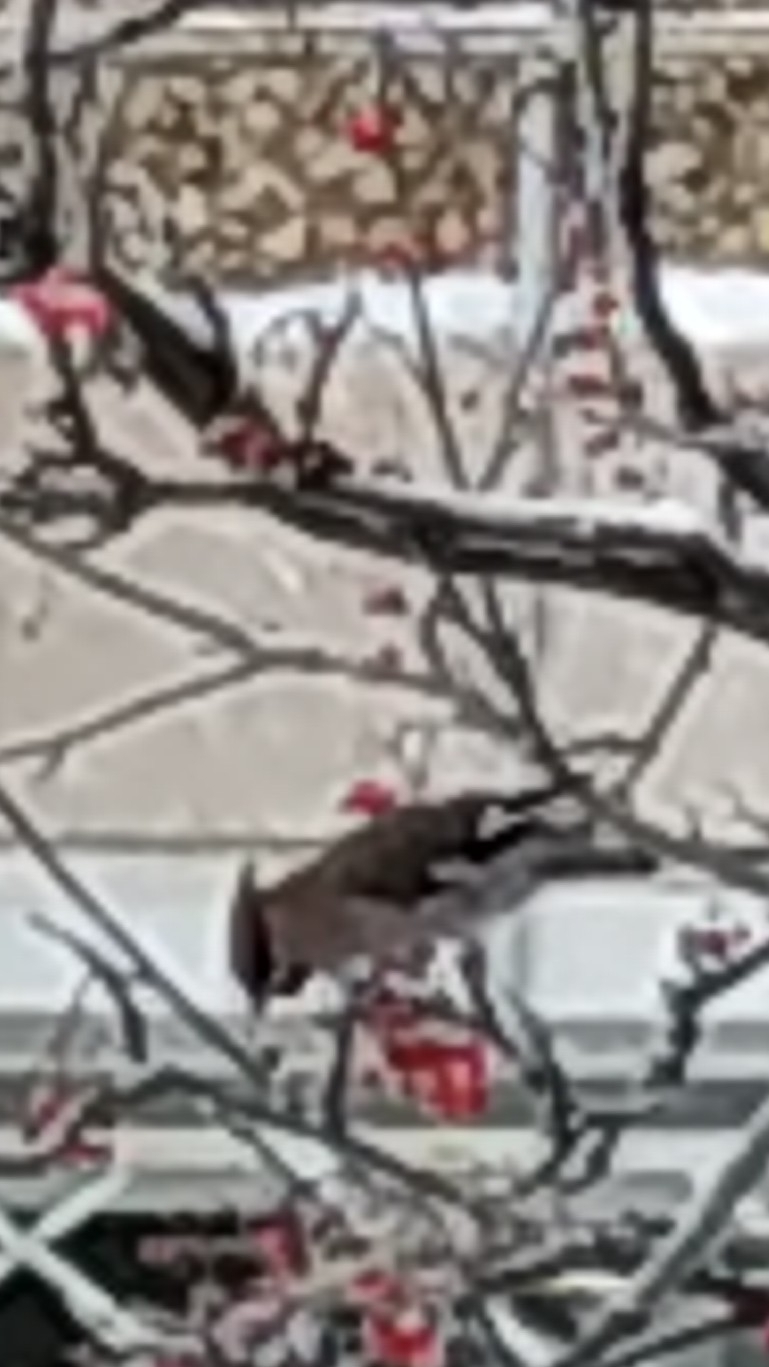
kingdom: Animalia
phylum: Chordata
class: Aves
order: Passeriformes
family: Bombycillidae
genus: Bombycilla
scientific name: Bombycilla garrulus
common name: Bohemian waxwing
